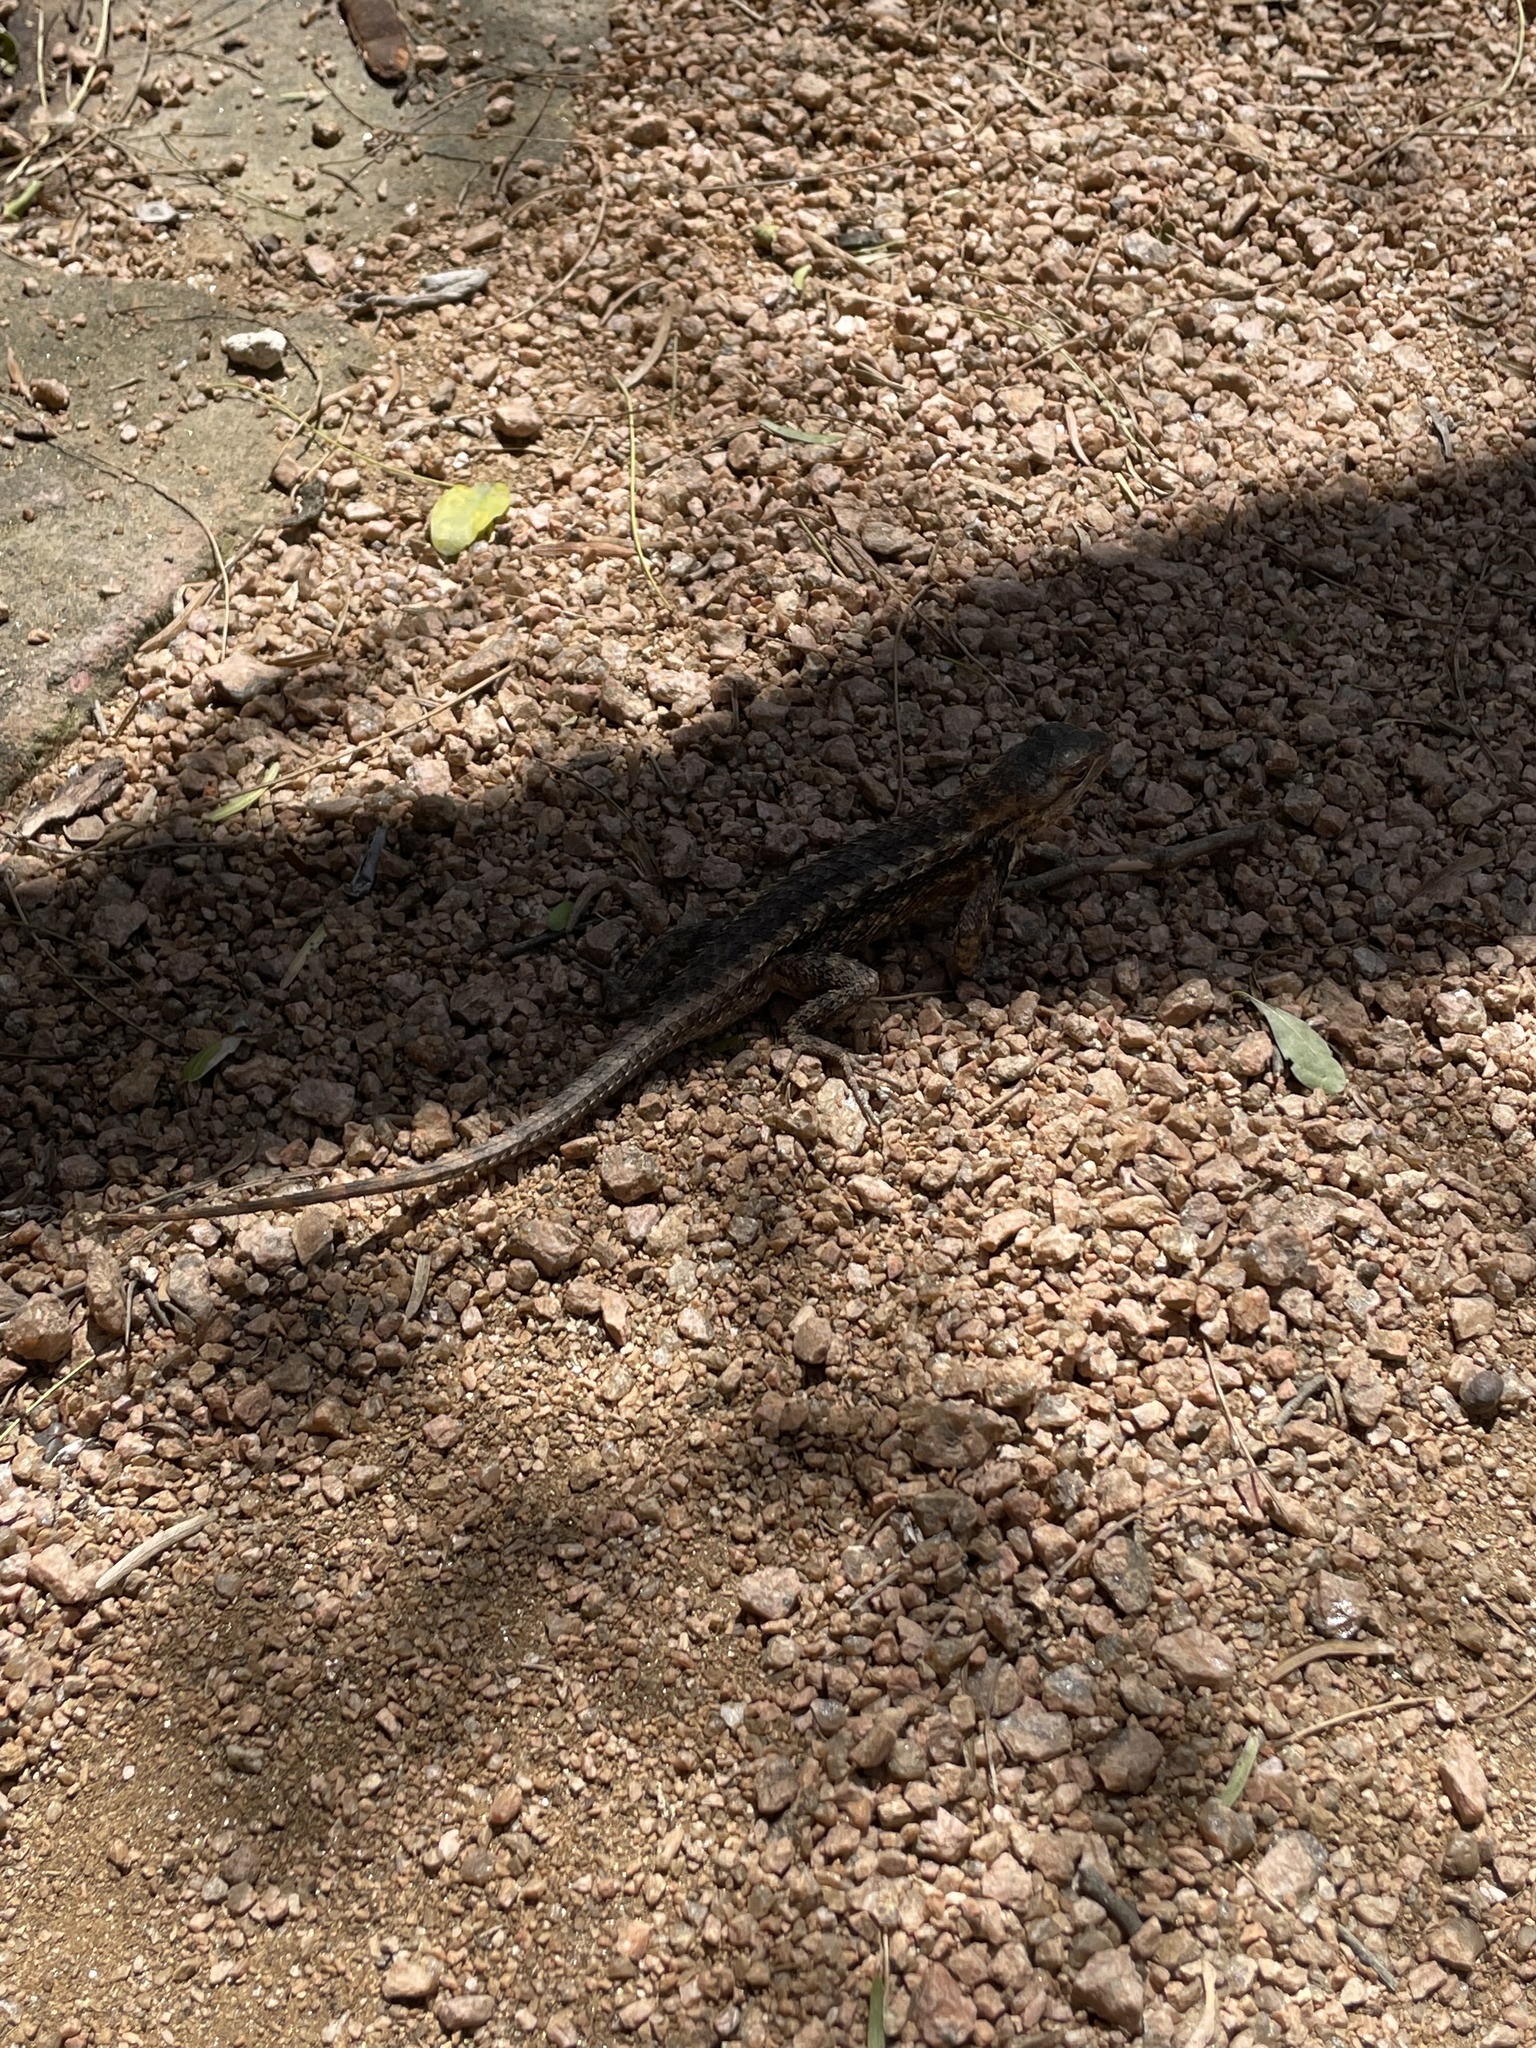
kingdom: Animalia
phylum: Chordata
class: Squamata
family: Phrynosomatidae
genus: Sceloporus
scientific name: Sceloporus olivaceus
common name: Texas spiny lizard
